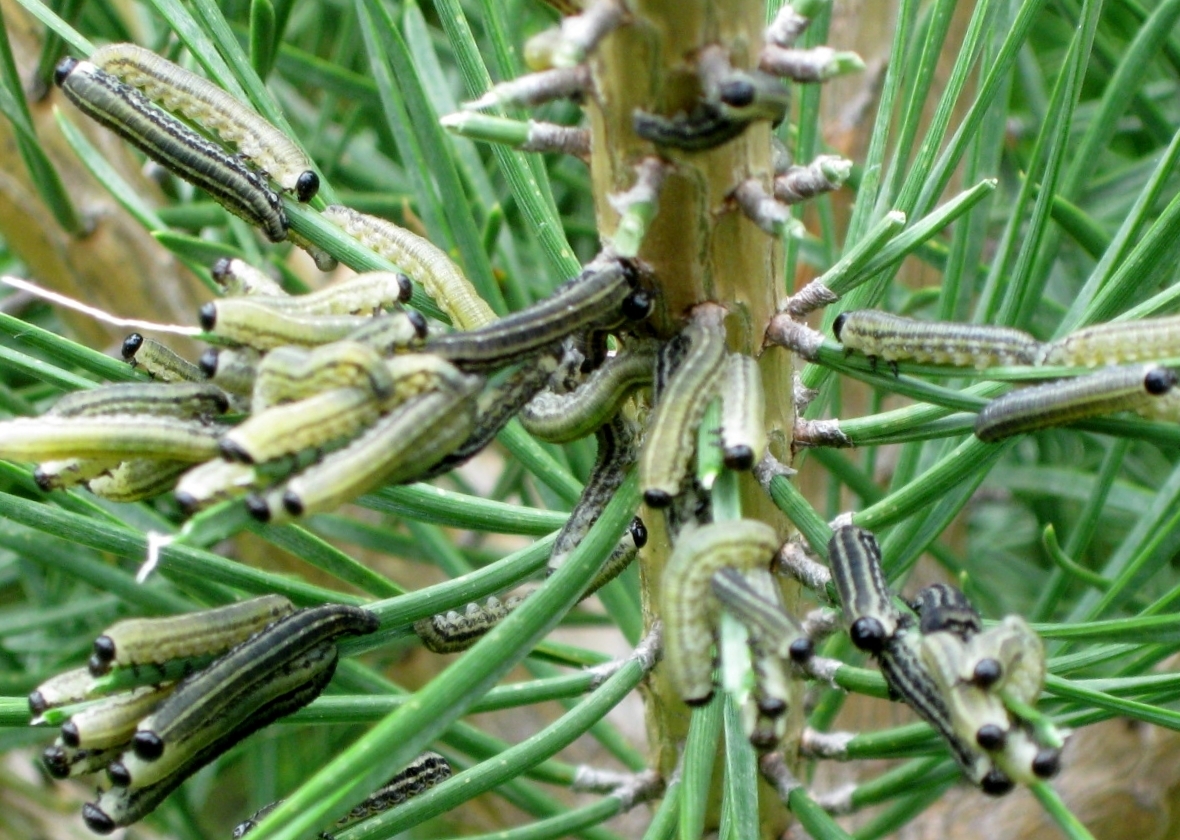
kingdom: Animalia
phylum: Arthropoda
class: Insecta
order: Hymenoptera
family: Diprionidae
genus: Neodiprion
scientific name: Neodiprion sertifer
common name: European pine sawfly
